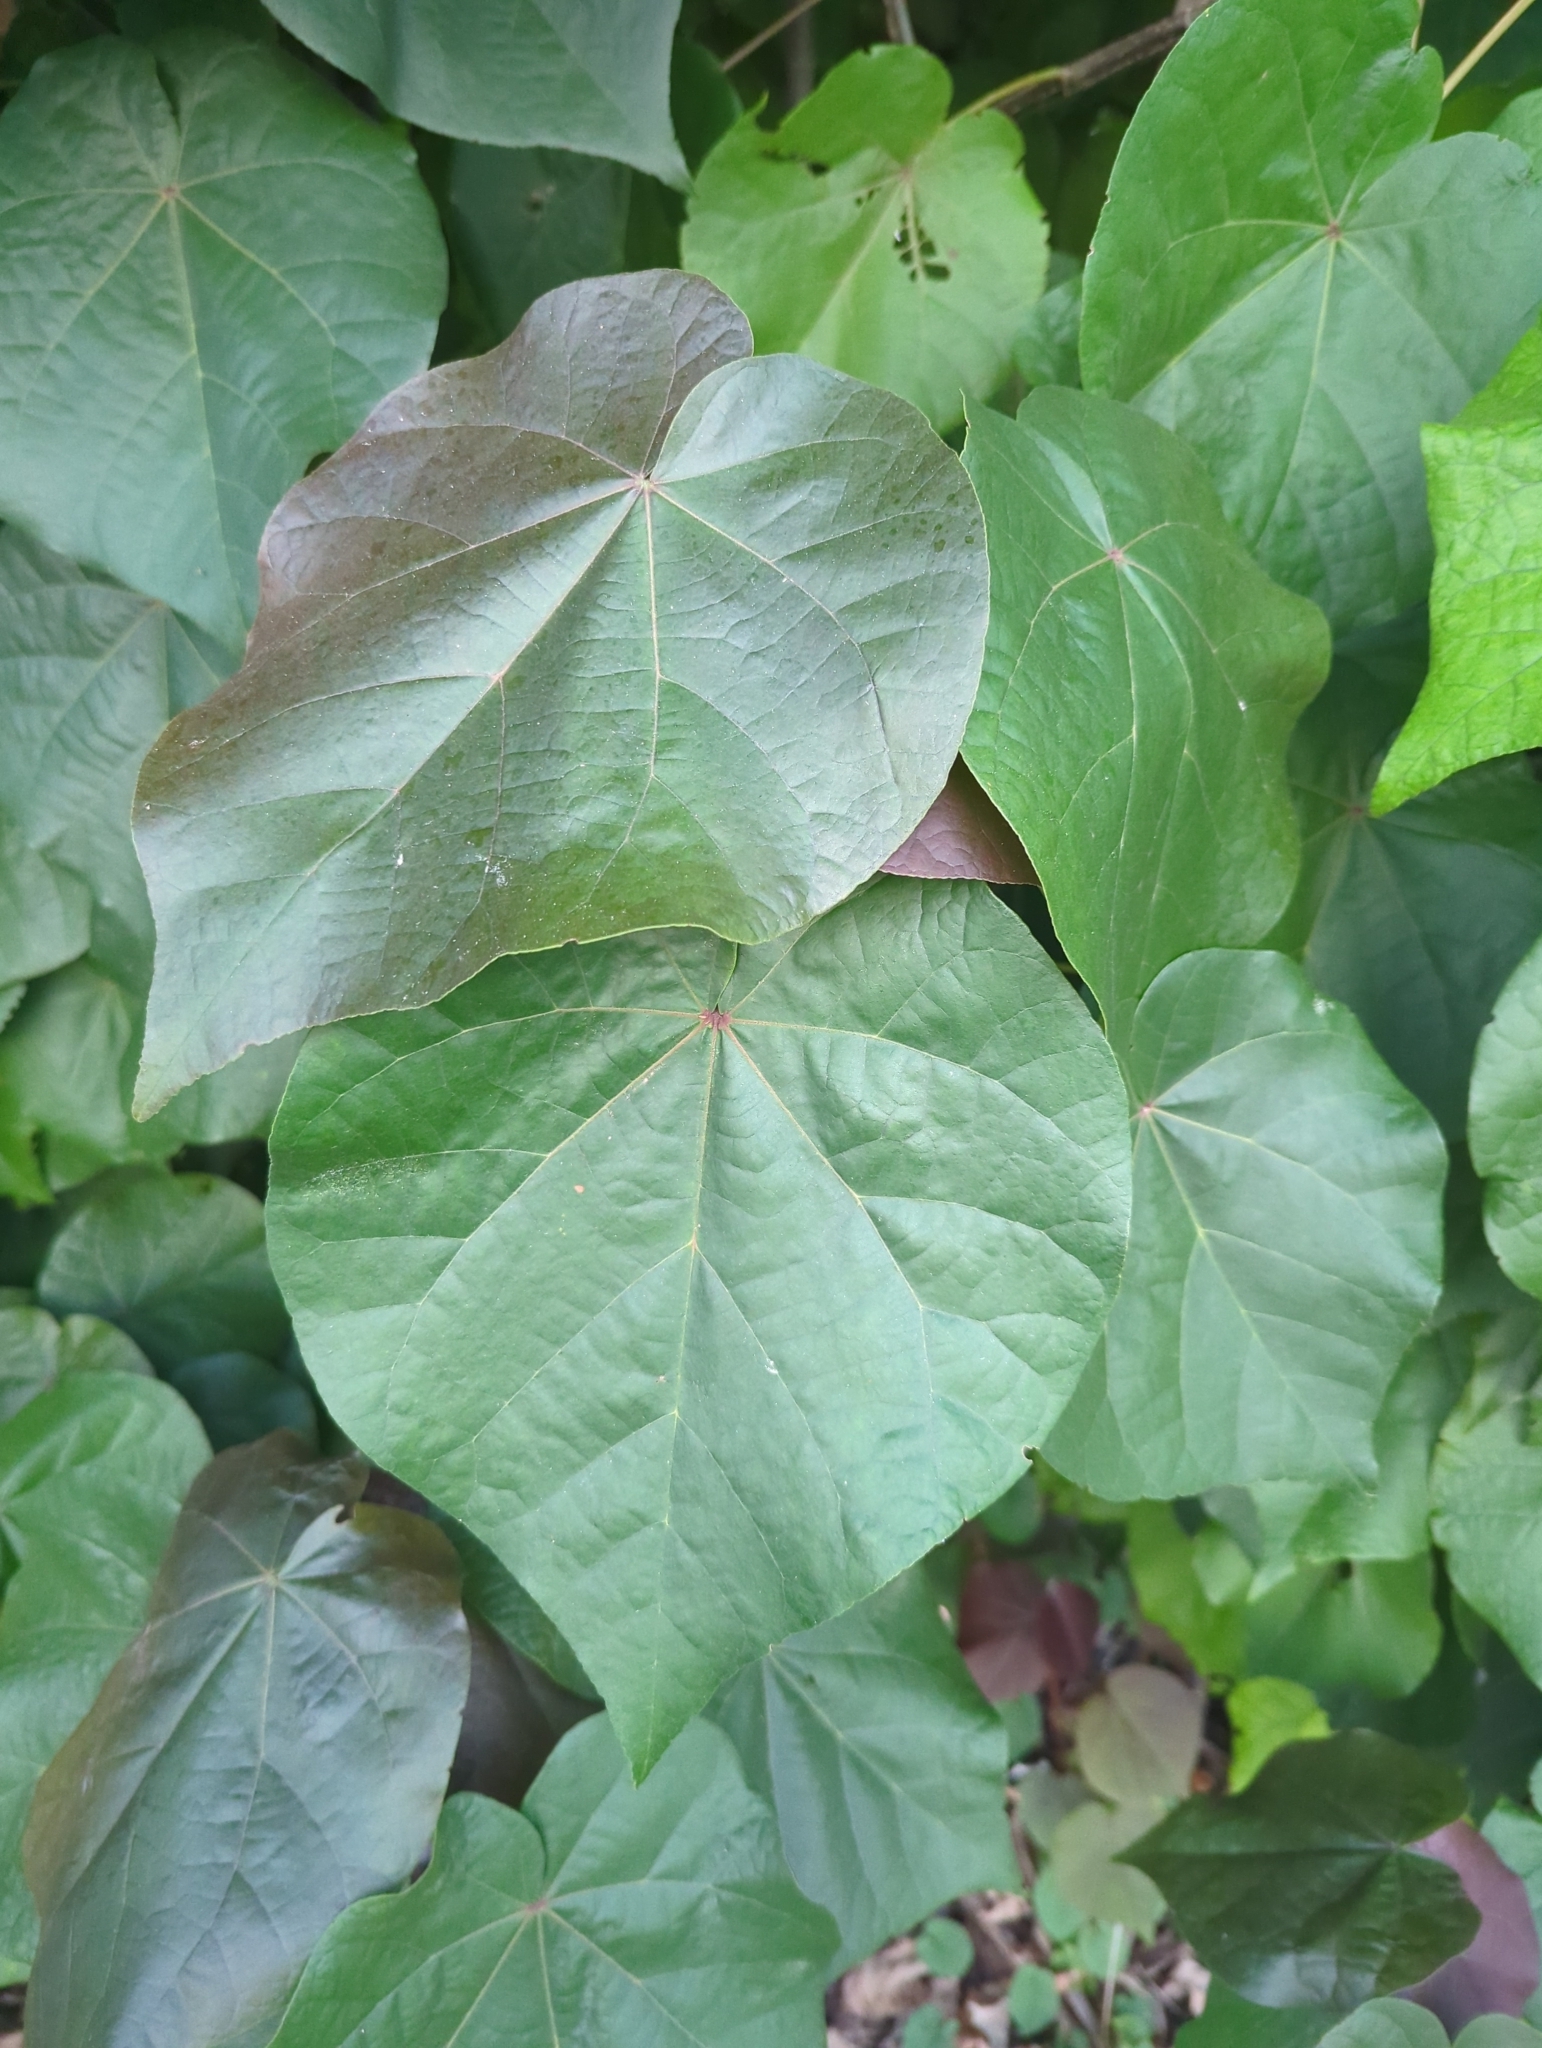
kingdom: Plantae
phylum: Tracheophyta
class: Magnoliopsida
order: Malvales
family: Malvaceae
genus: Talipariti
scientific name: Talipariti tiliaceum
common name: Sea hibiscus
